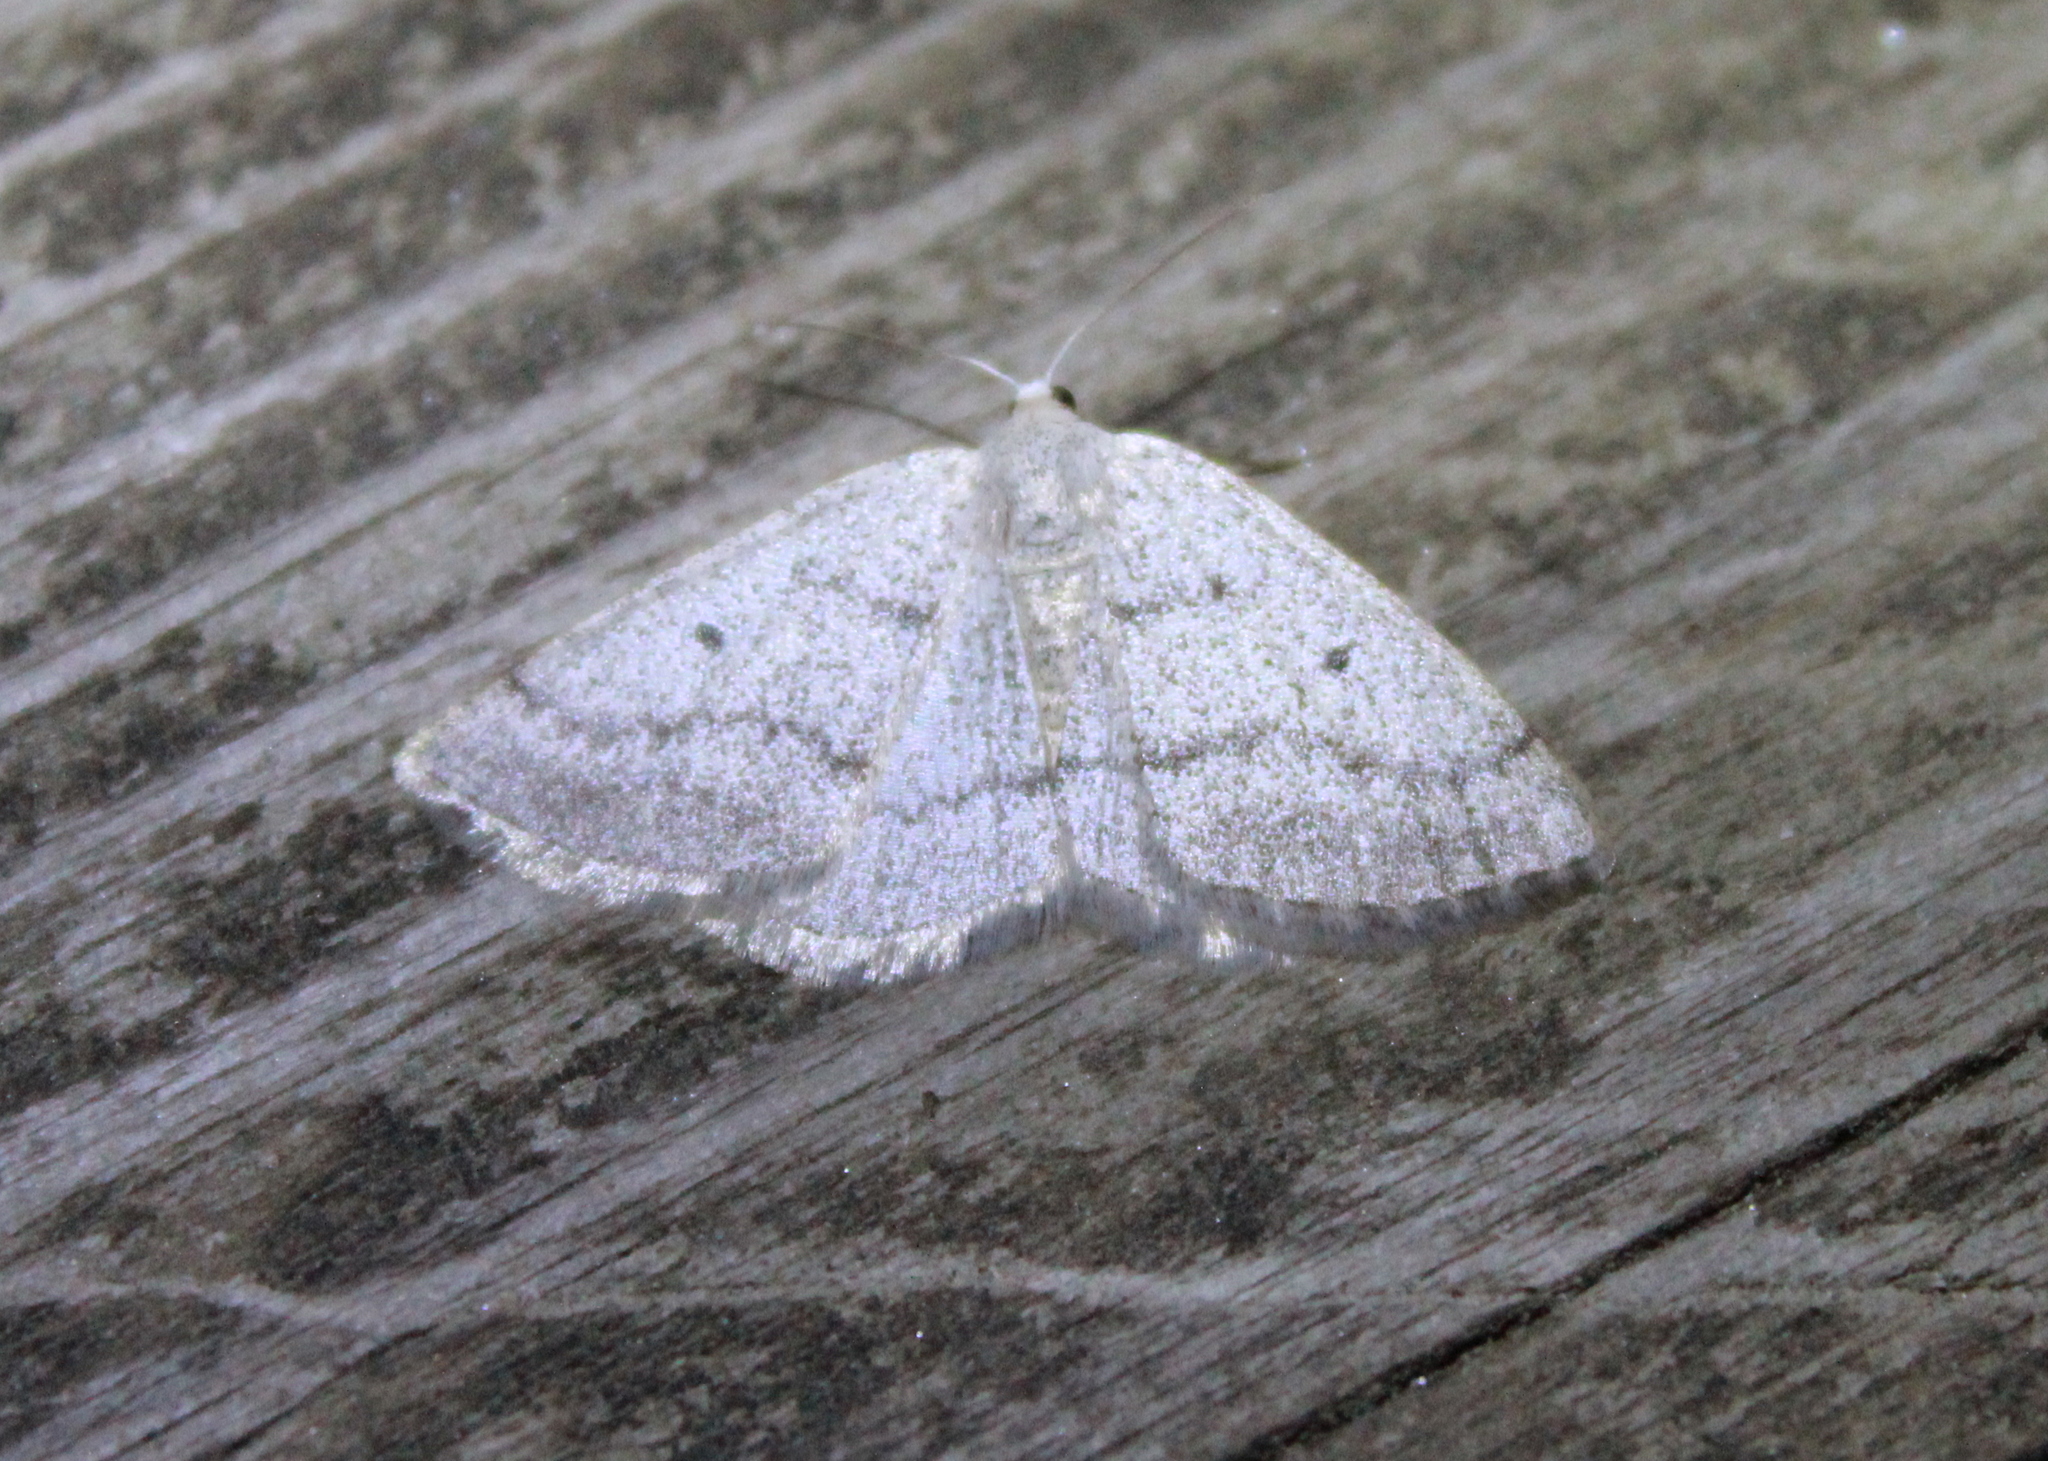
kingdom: Animalia
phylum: Arthropoda
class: Insecta
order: Lepidoptera
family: Geometridae
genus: Lomographa
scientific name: Lomographa glomeraria
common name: Gray spring moth
